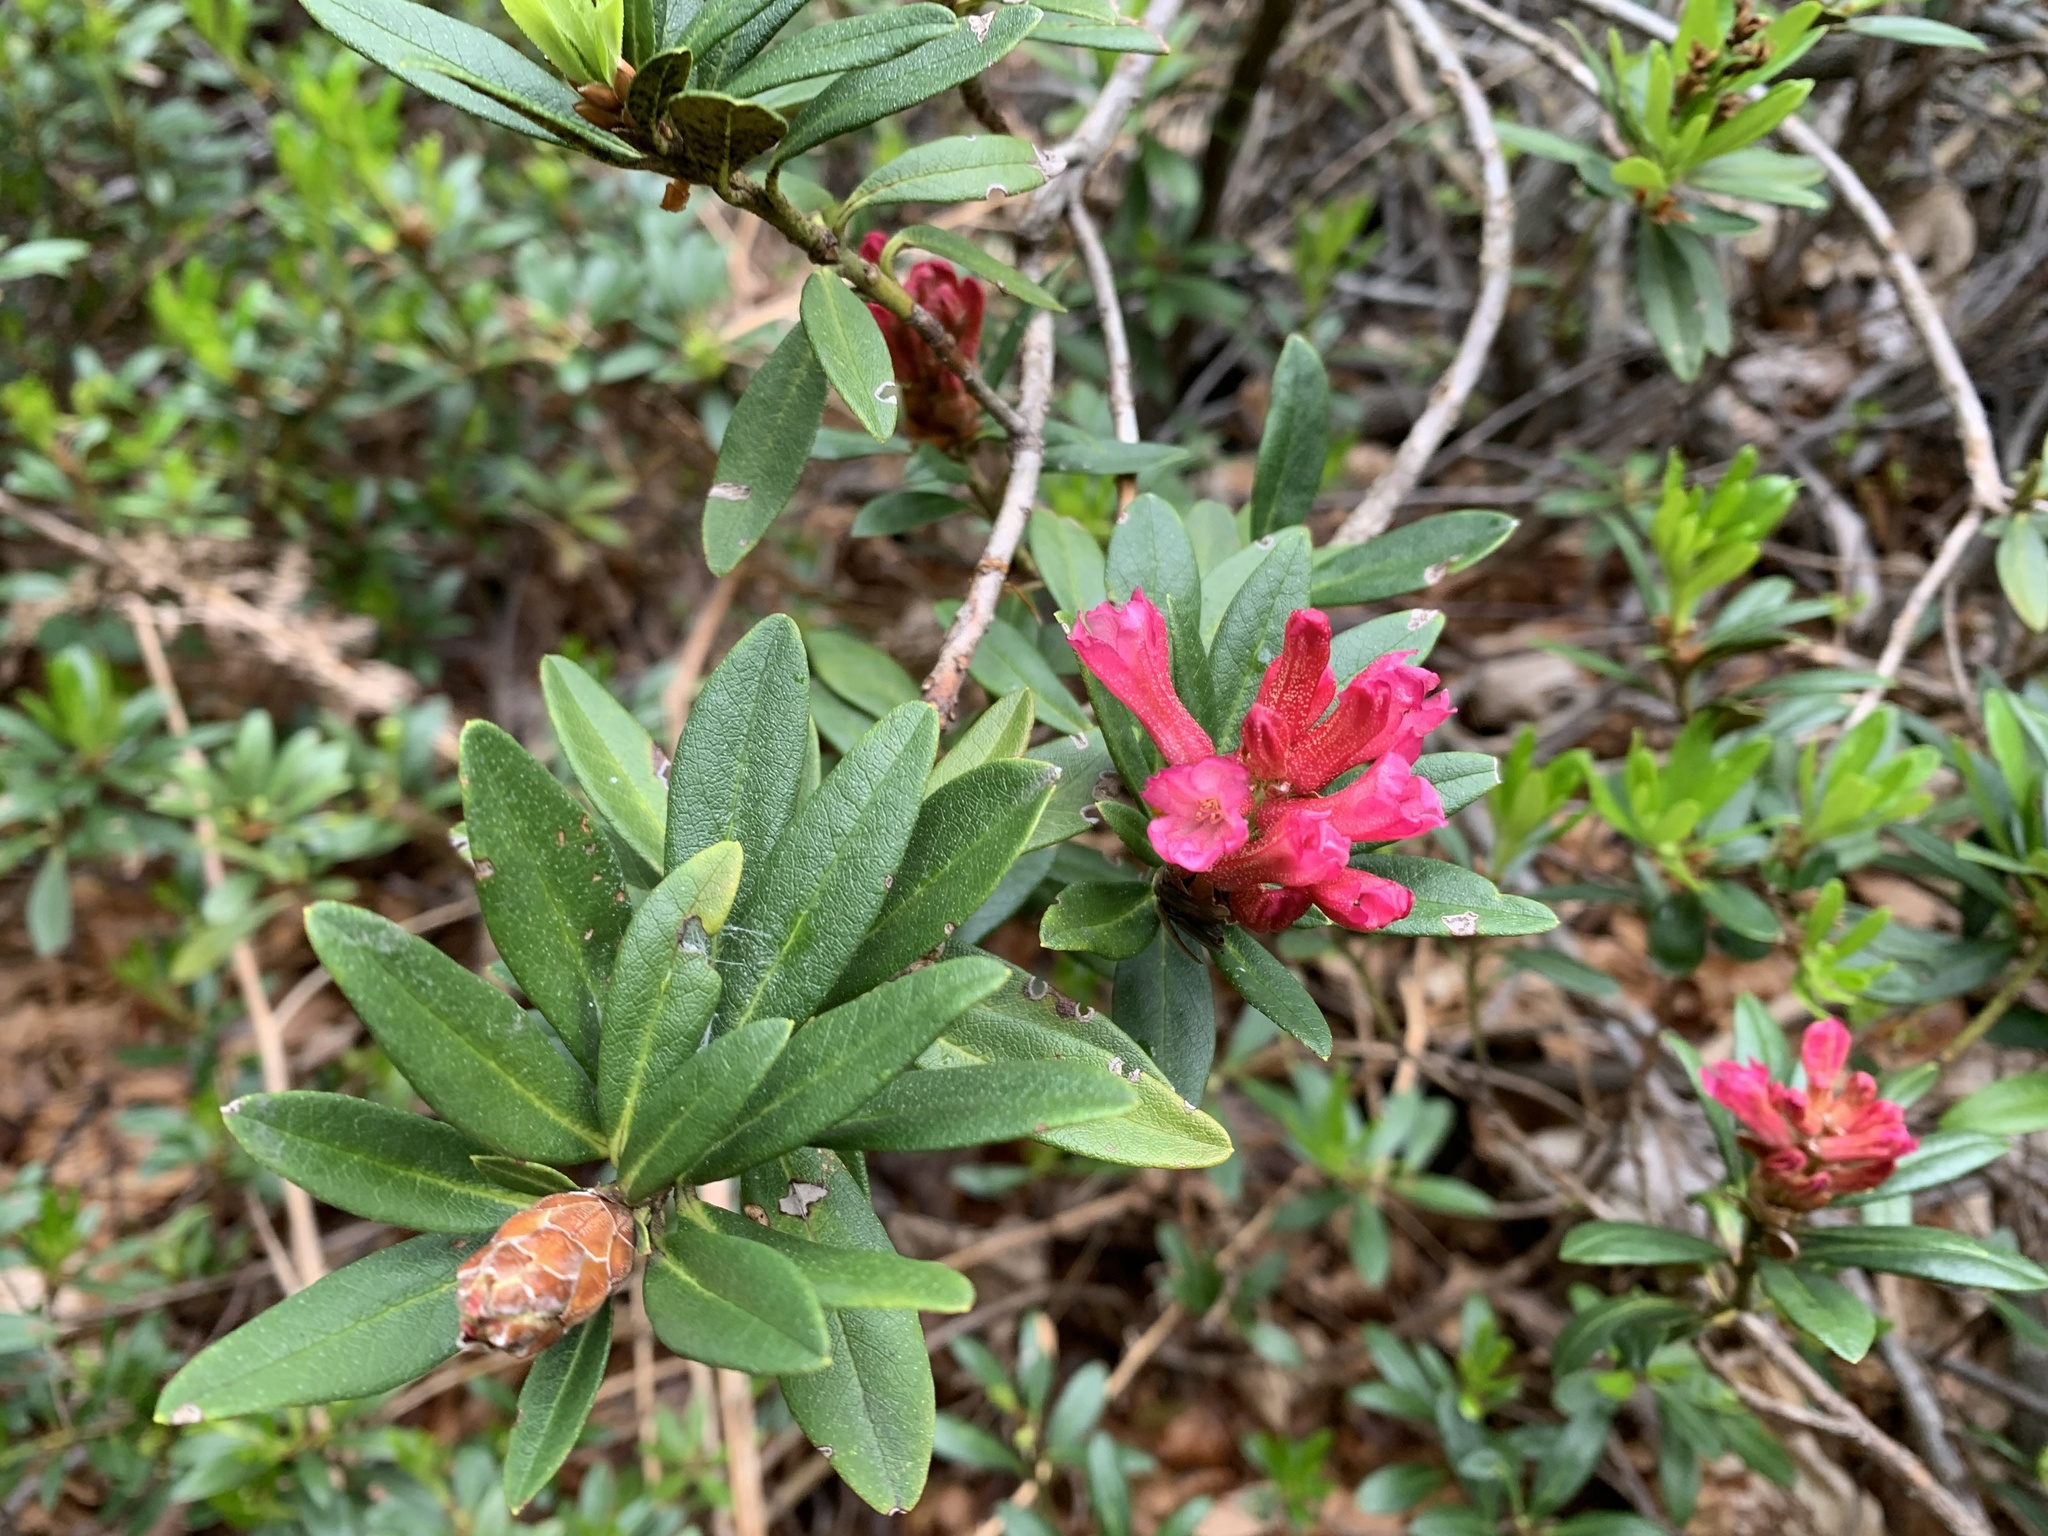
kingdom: Plantae
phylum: Tracheophyta
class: Magnoliopsida
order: Ericales
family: Ericaceae
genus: Rhododendron
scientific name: Rhododendron ferrugineum
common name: Alpenrose
